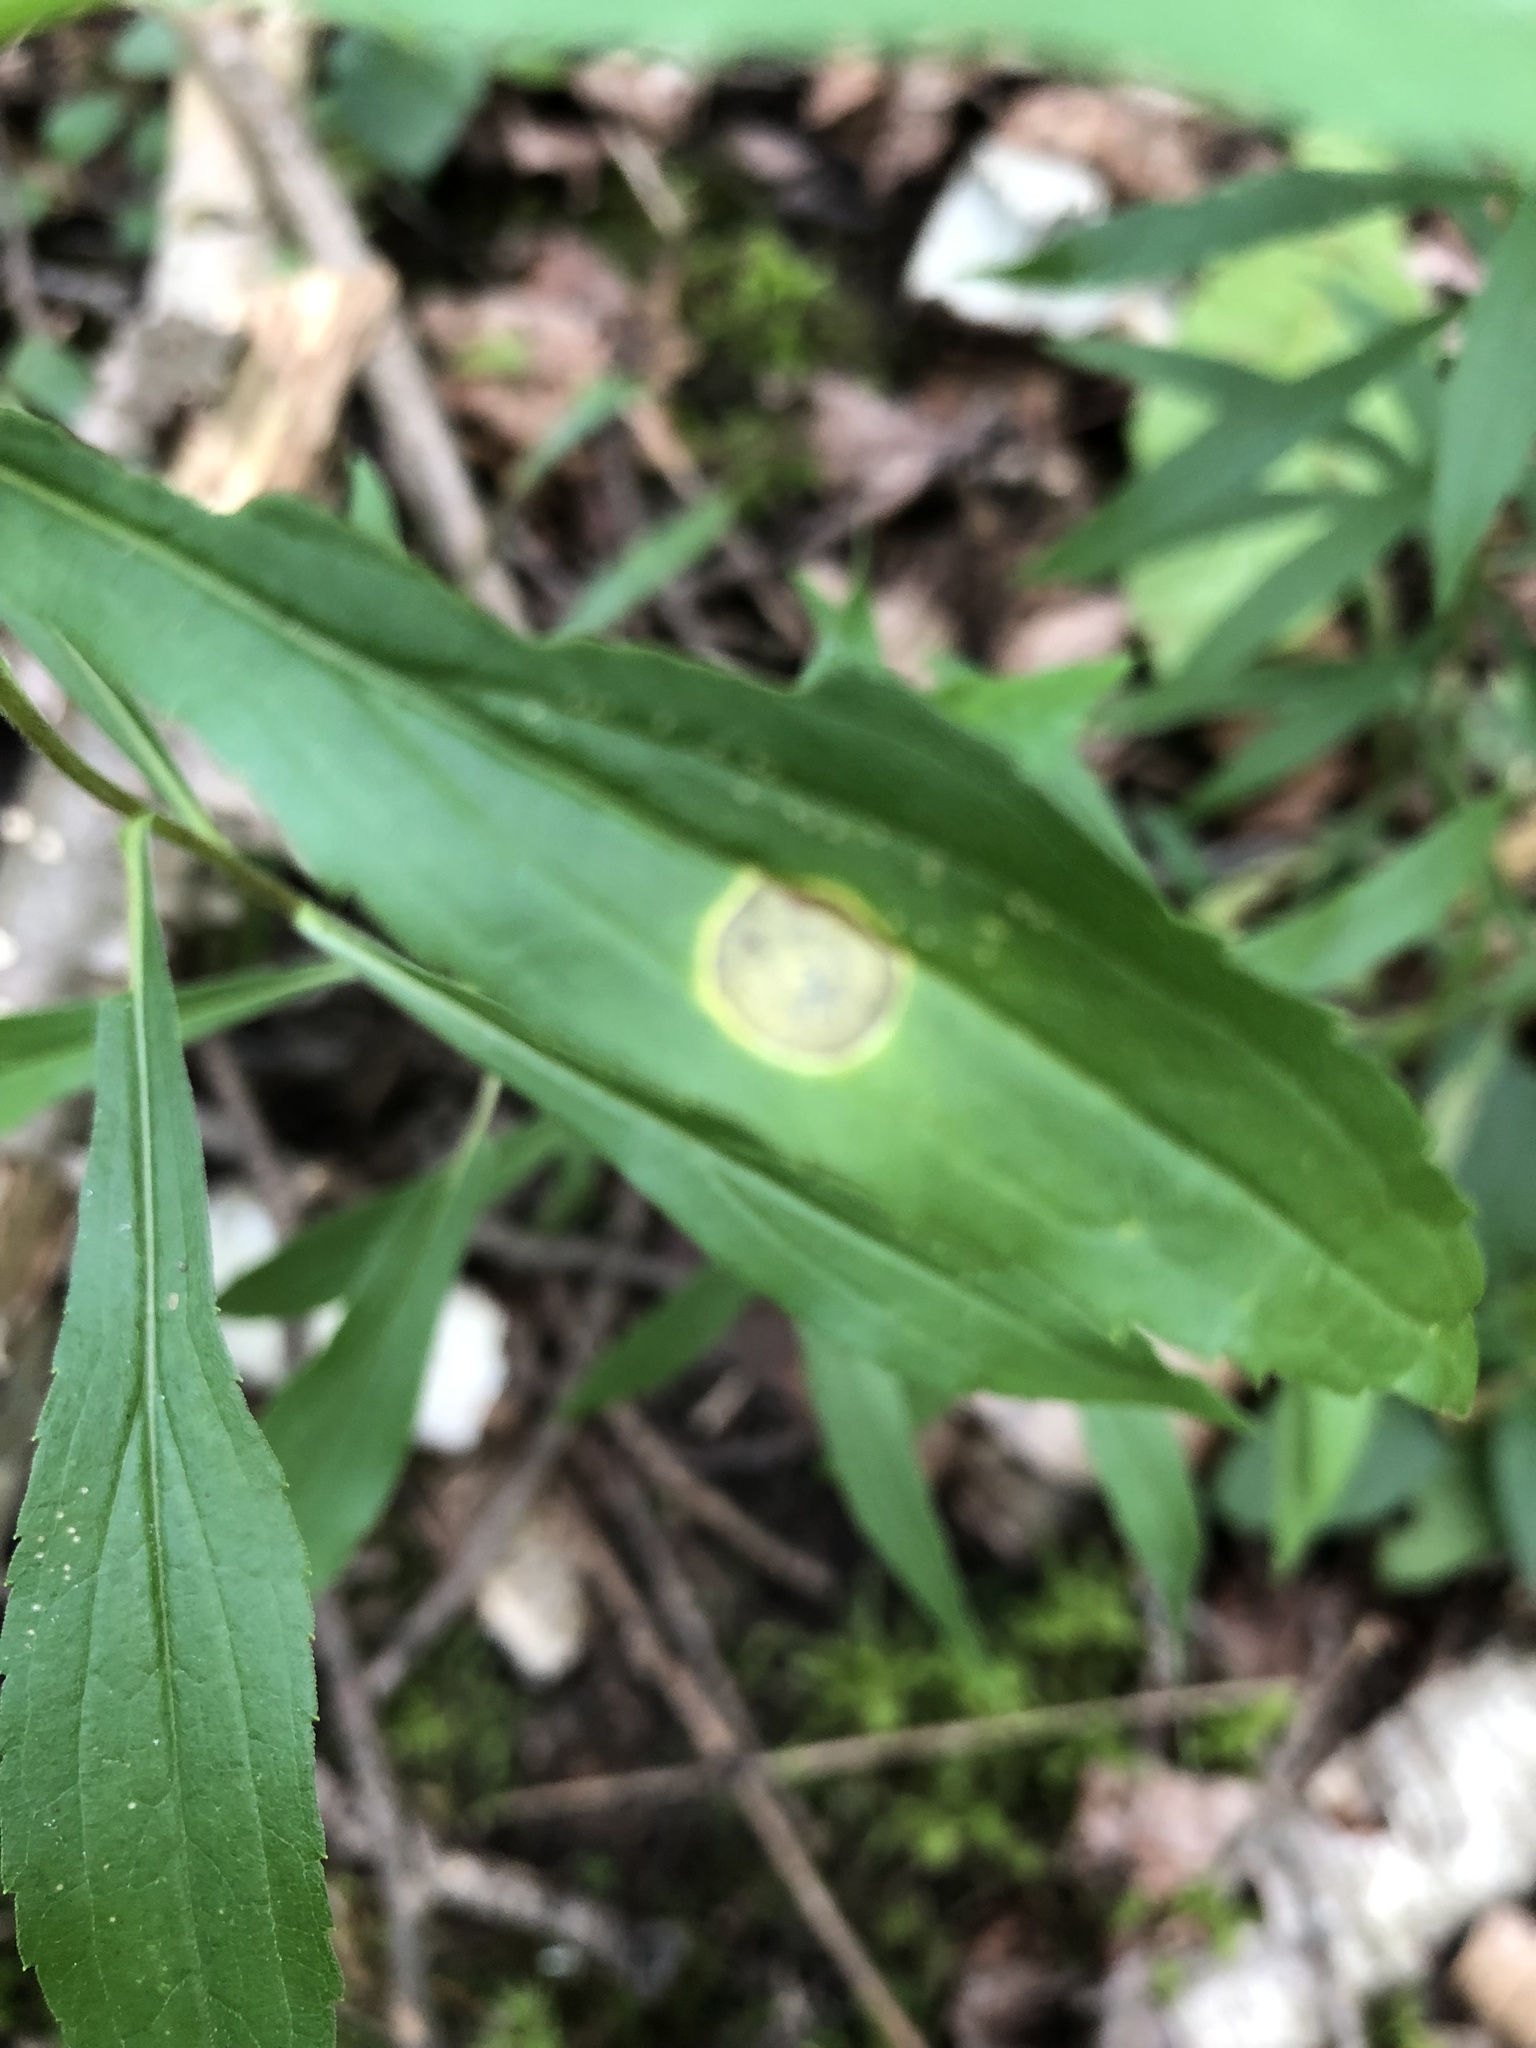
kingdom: Animalia
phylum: Arthropoda
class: Insecta
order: Diptera
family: Cecidomyiidae
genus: Asteromyia
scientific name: Asteromyia carbonifera
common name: Carbonifera goldenrod gall midge
